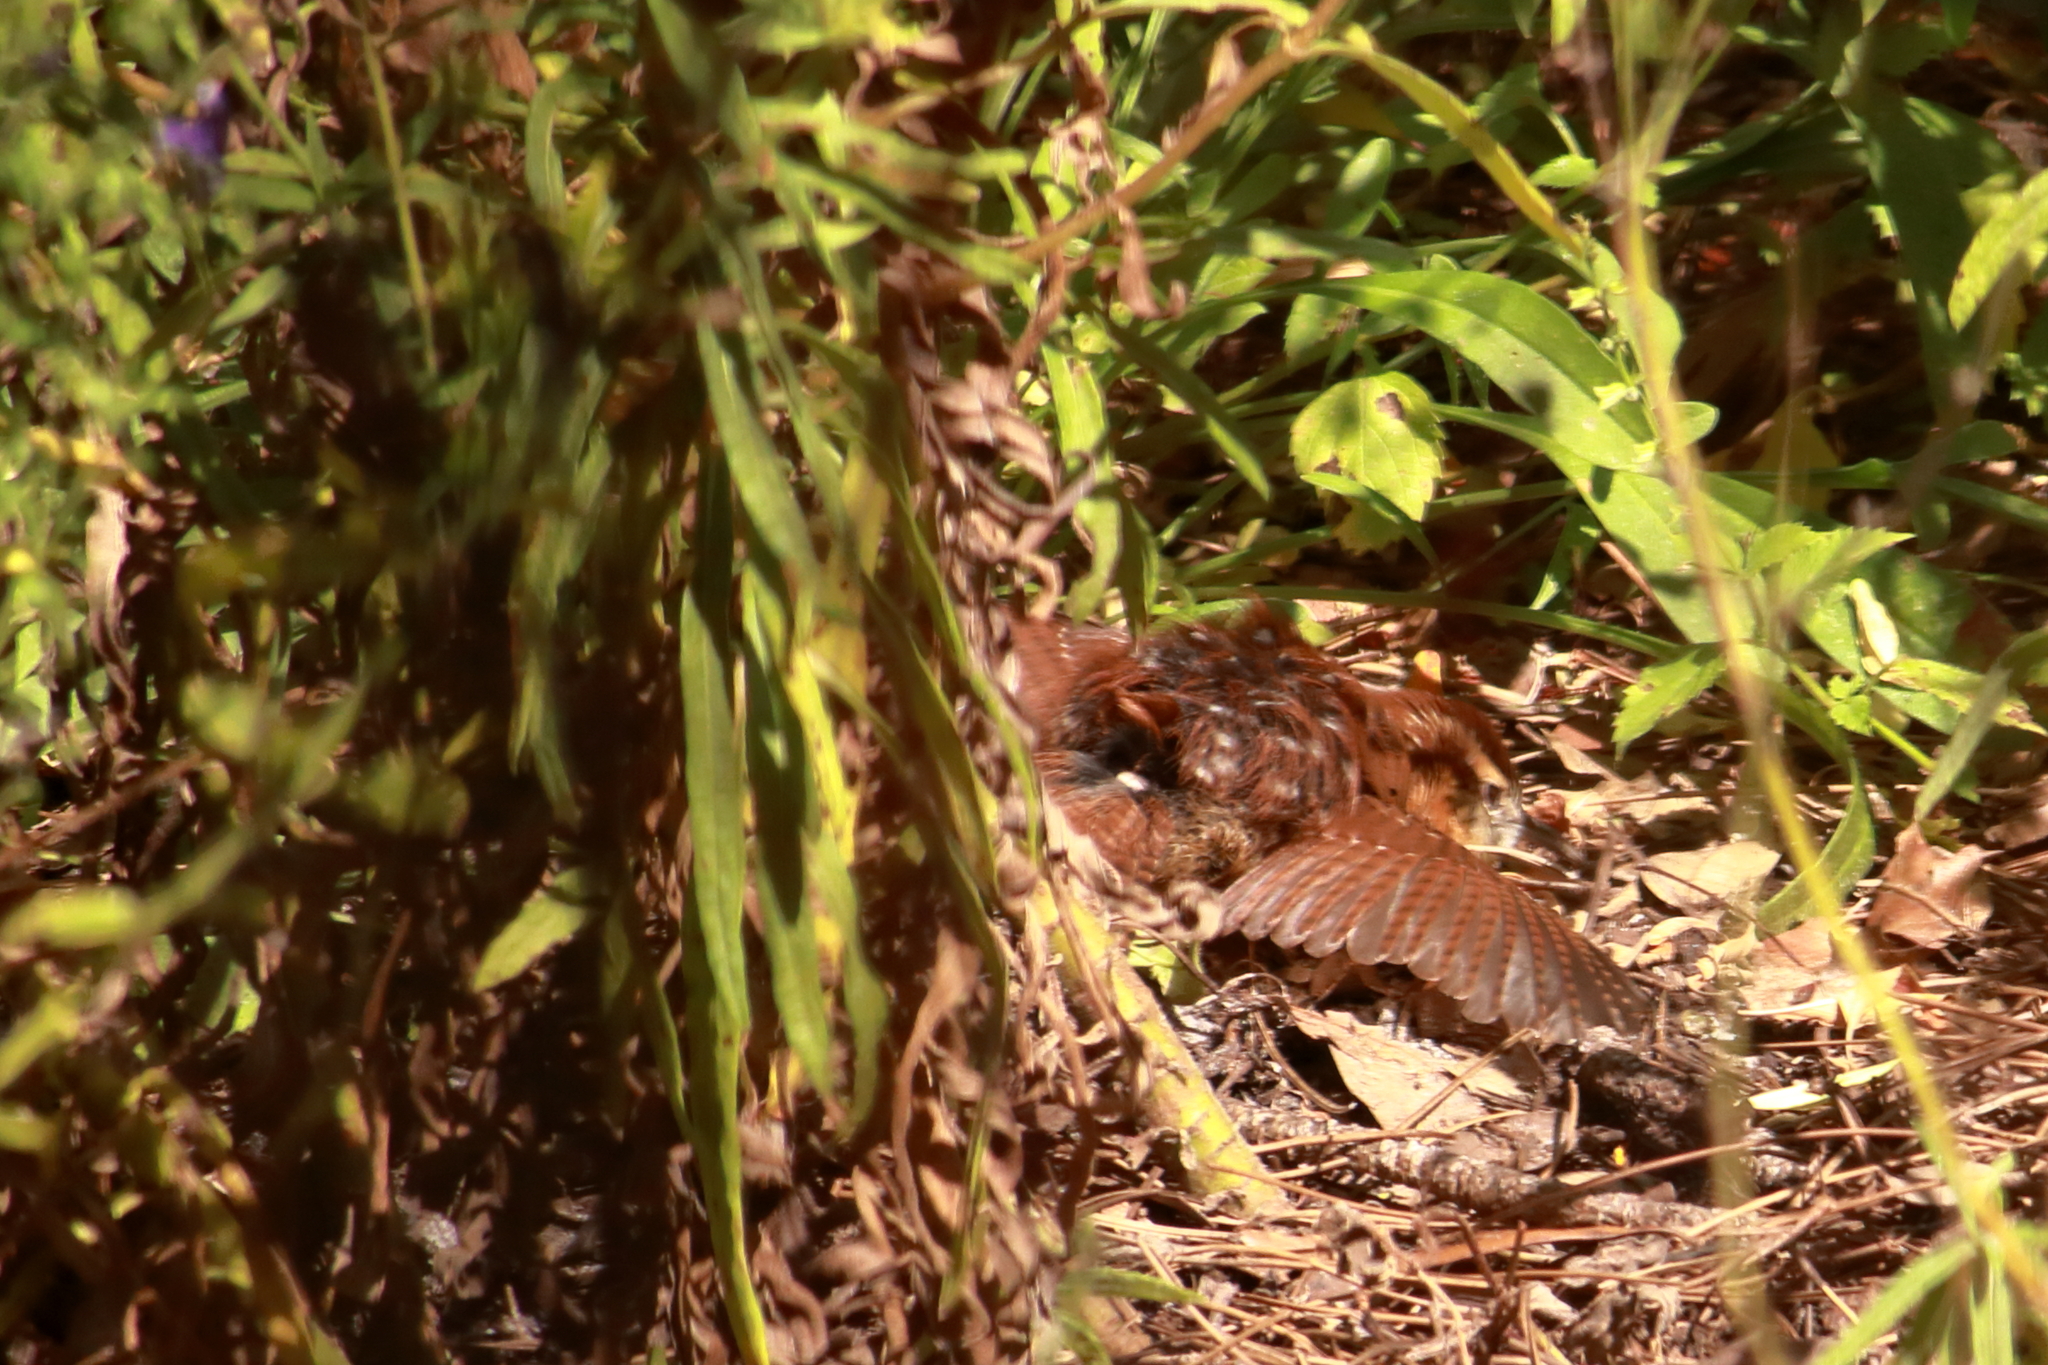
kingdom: Animalia
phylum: Chordata
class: Aves
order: Passeriformes
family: Troglodytidae
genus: Thryothorus
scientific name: Thryothorus ludovicianus
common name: Carolina wren
